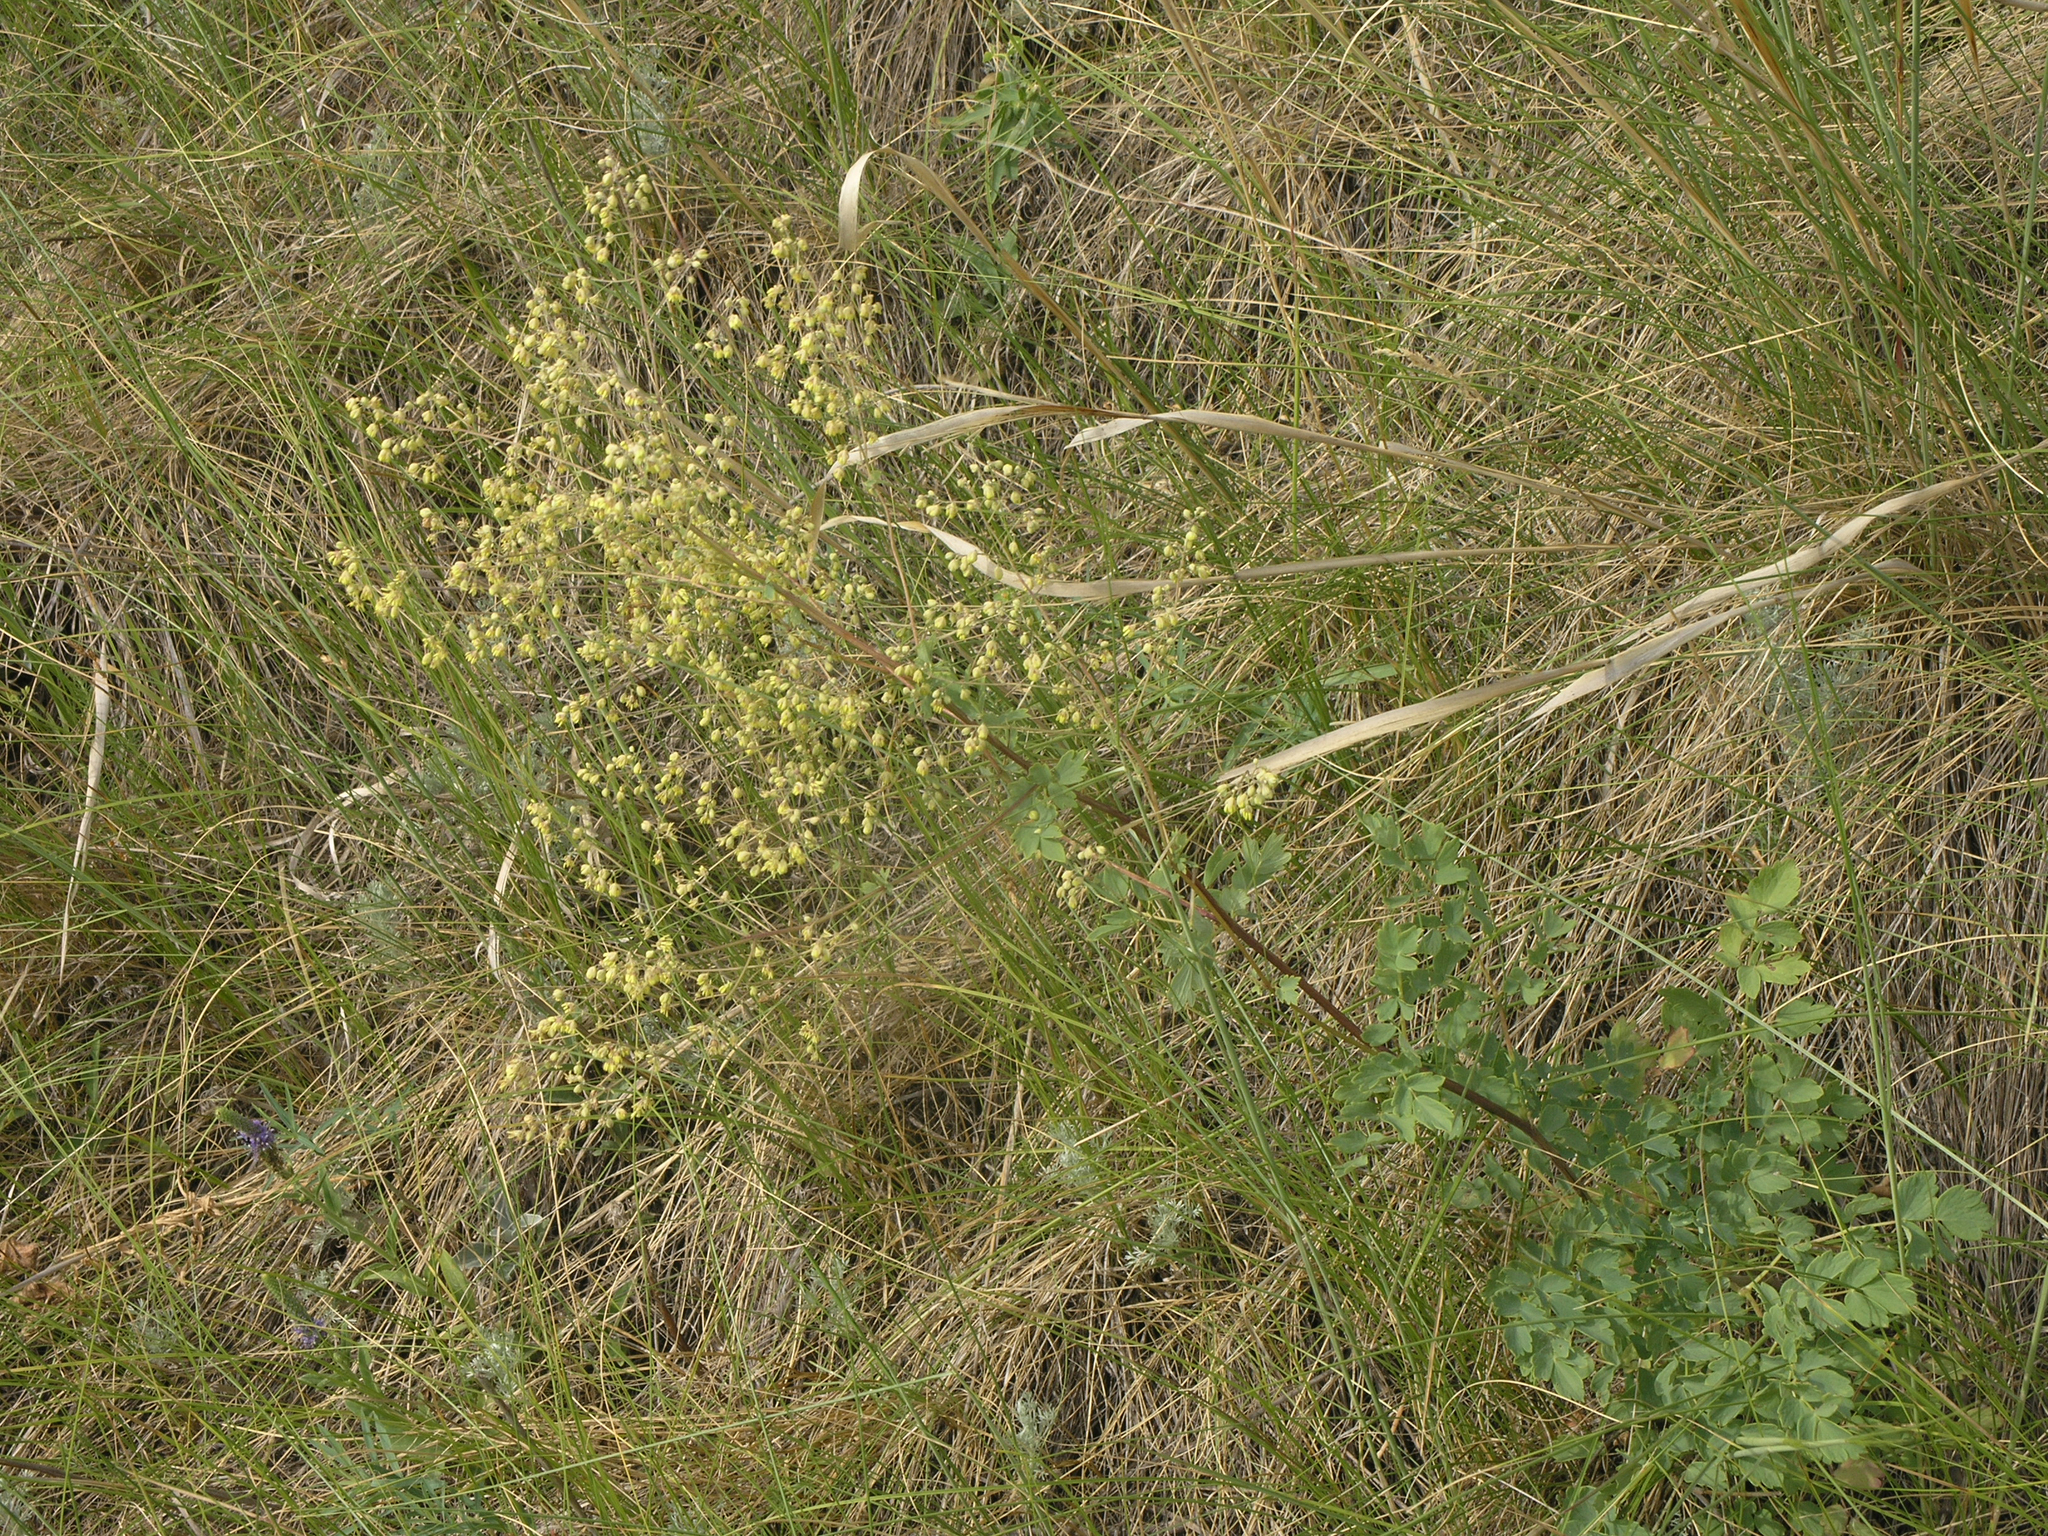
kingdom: Plantae
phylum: Tracheophyta
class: Magnoliopsida
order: Ranunculales
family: Ranunculaceae
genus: Thalictrum
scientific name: Thalictrum minus
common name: Lesser meadow-rue
